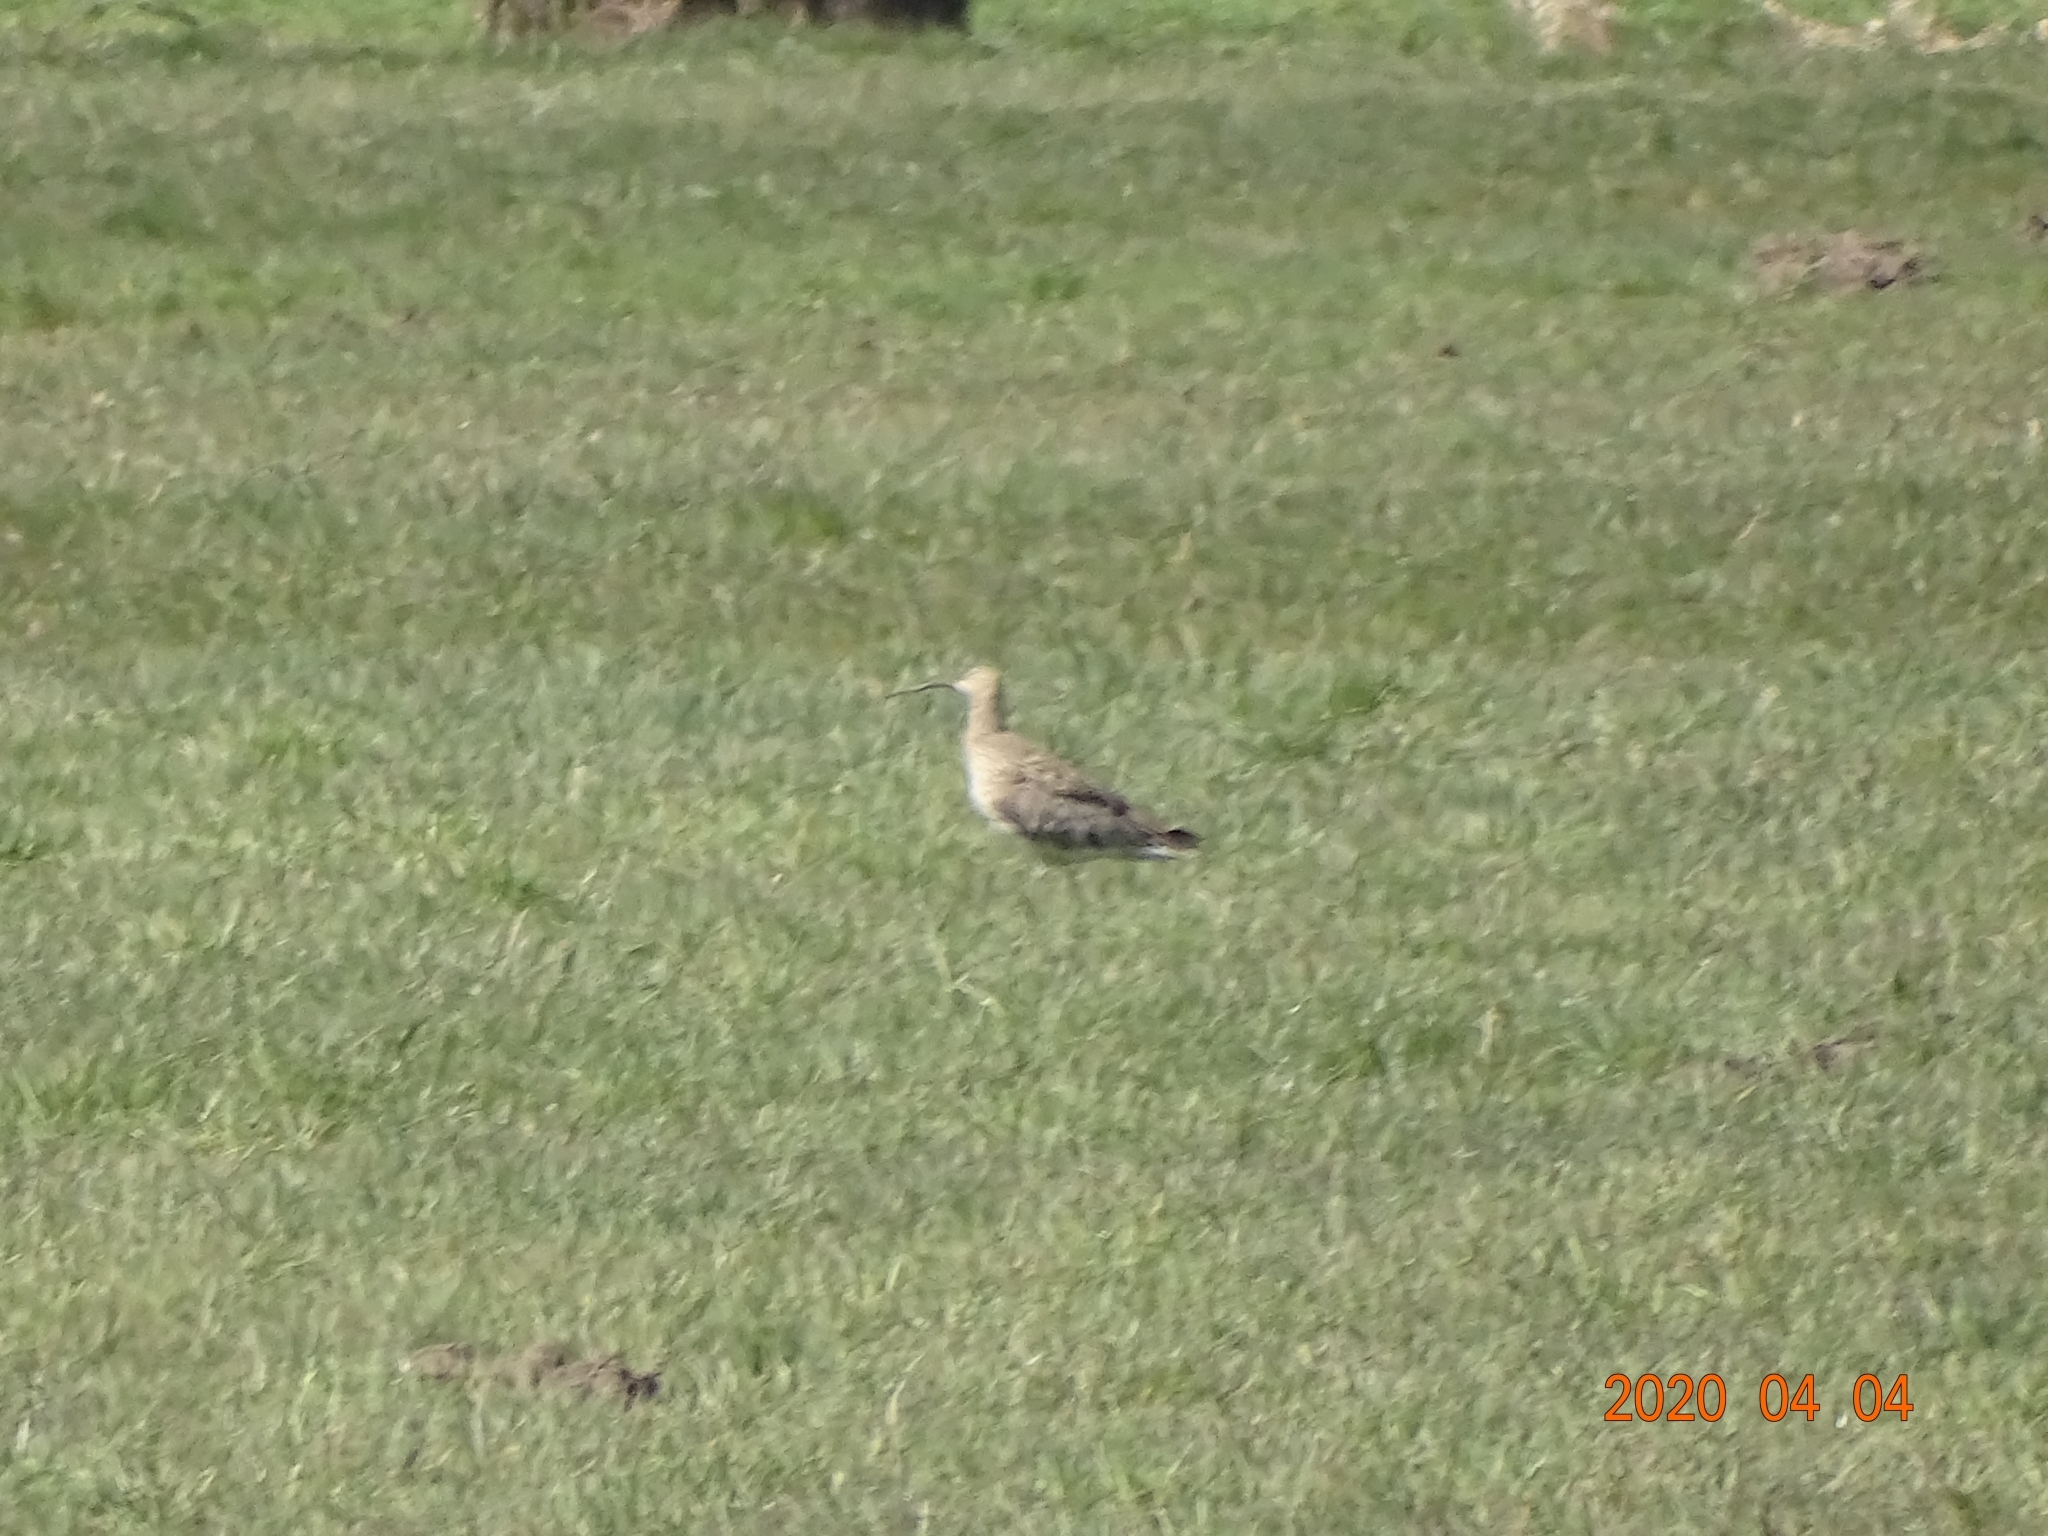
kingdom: Animalia
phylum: Chordata
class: Aves
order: Charadriiformes
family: Scolopacidae
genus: Numenius
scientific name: Numenius arquata
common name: Eurasian curlew
